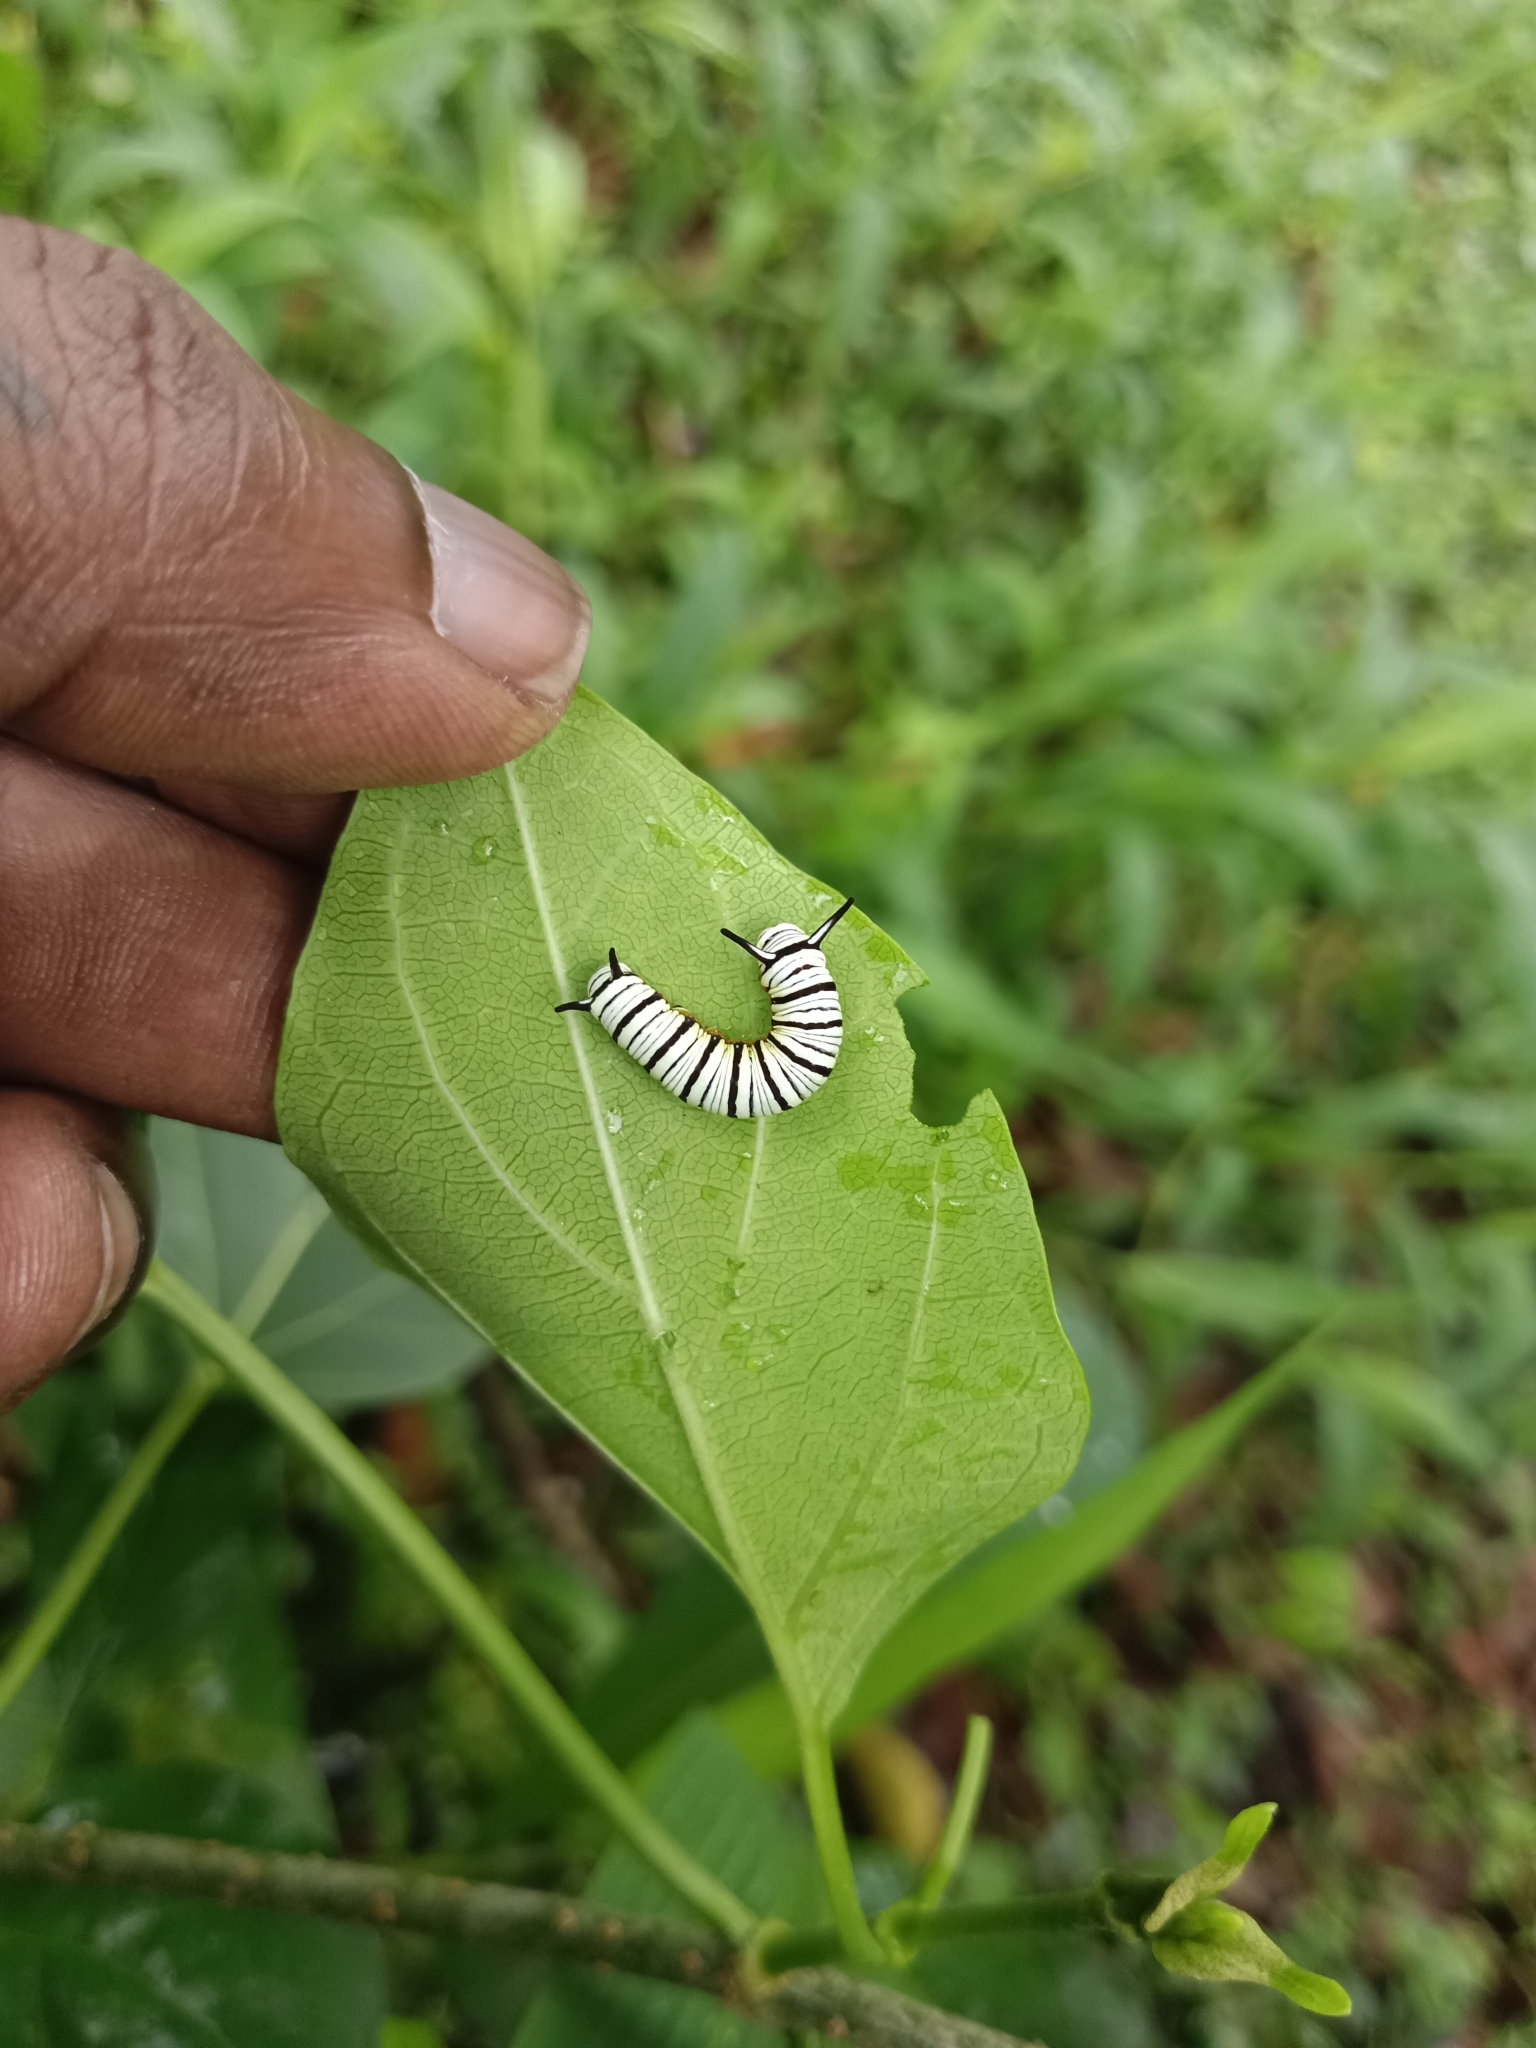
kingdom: Animalia
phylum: Arthropoda
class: Insecta
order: Lepidoptera
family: Nymphalidae
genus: Tirumala
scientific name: Tirumala limniace
